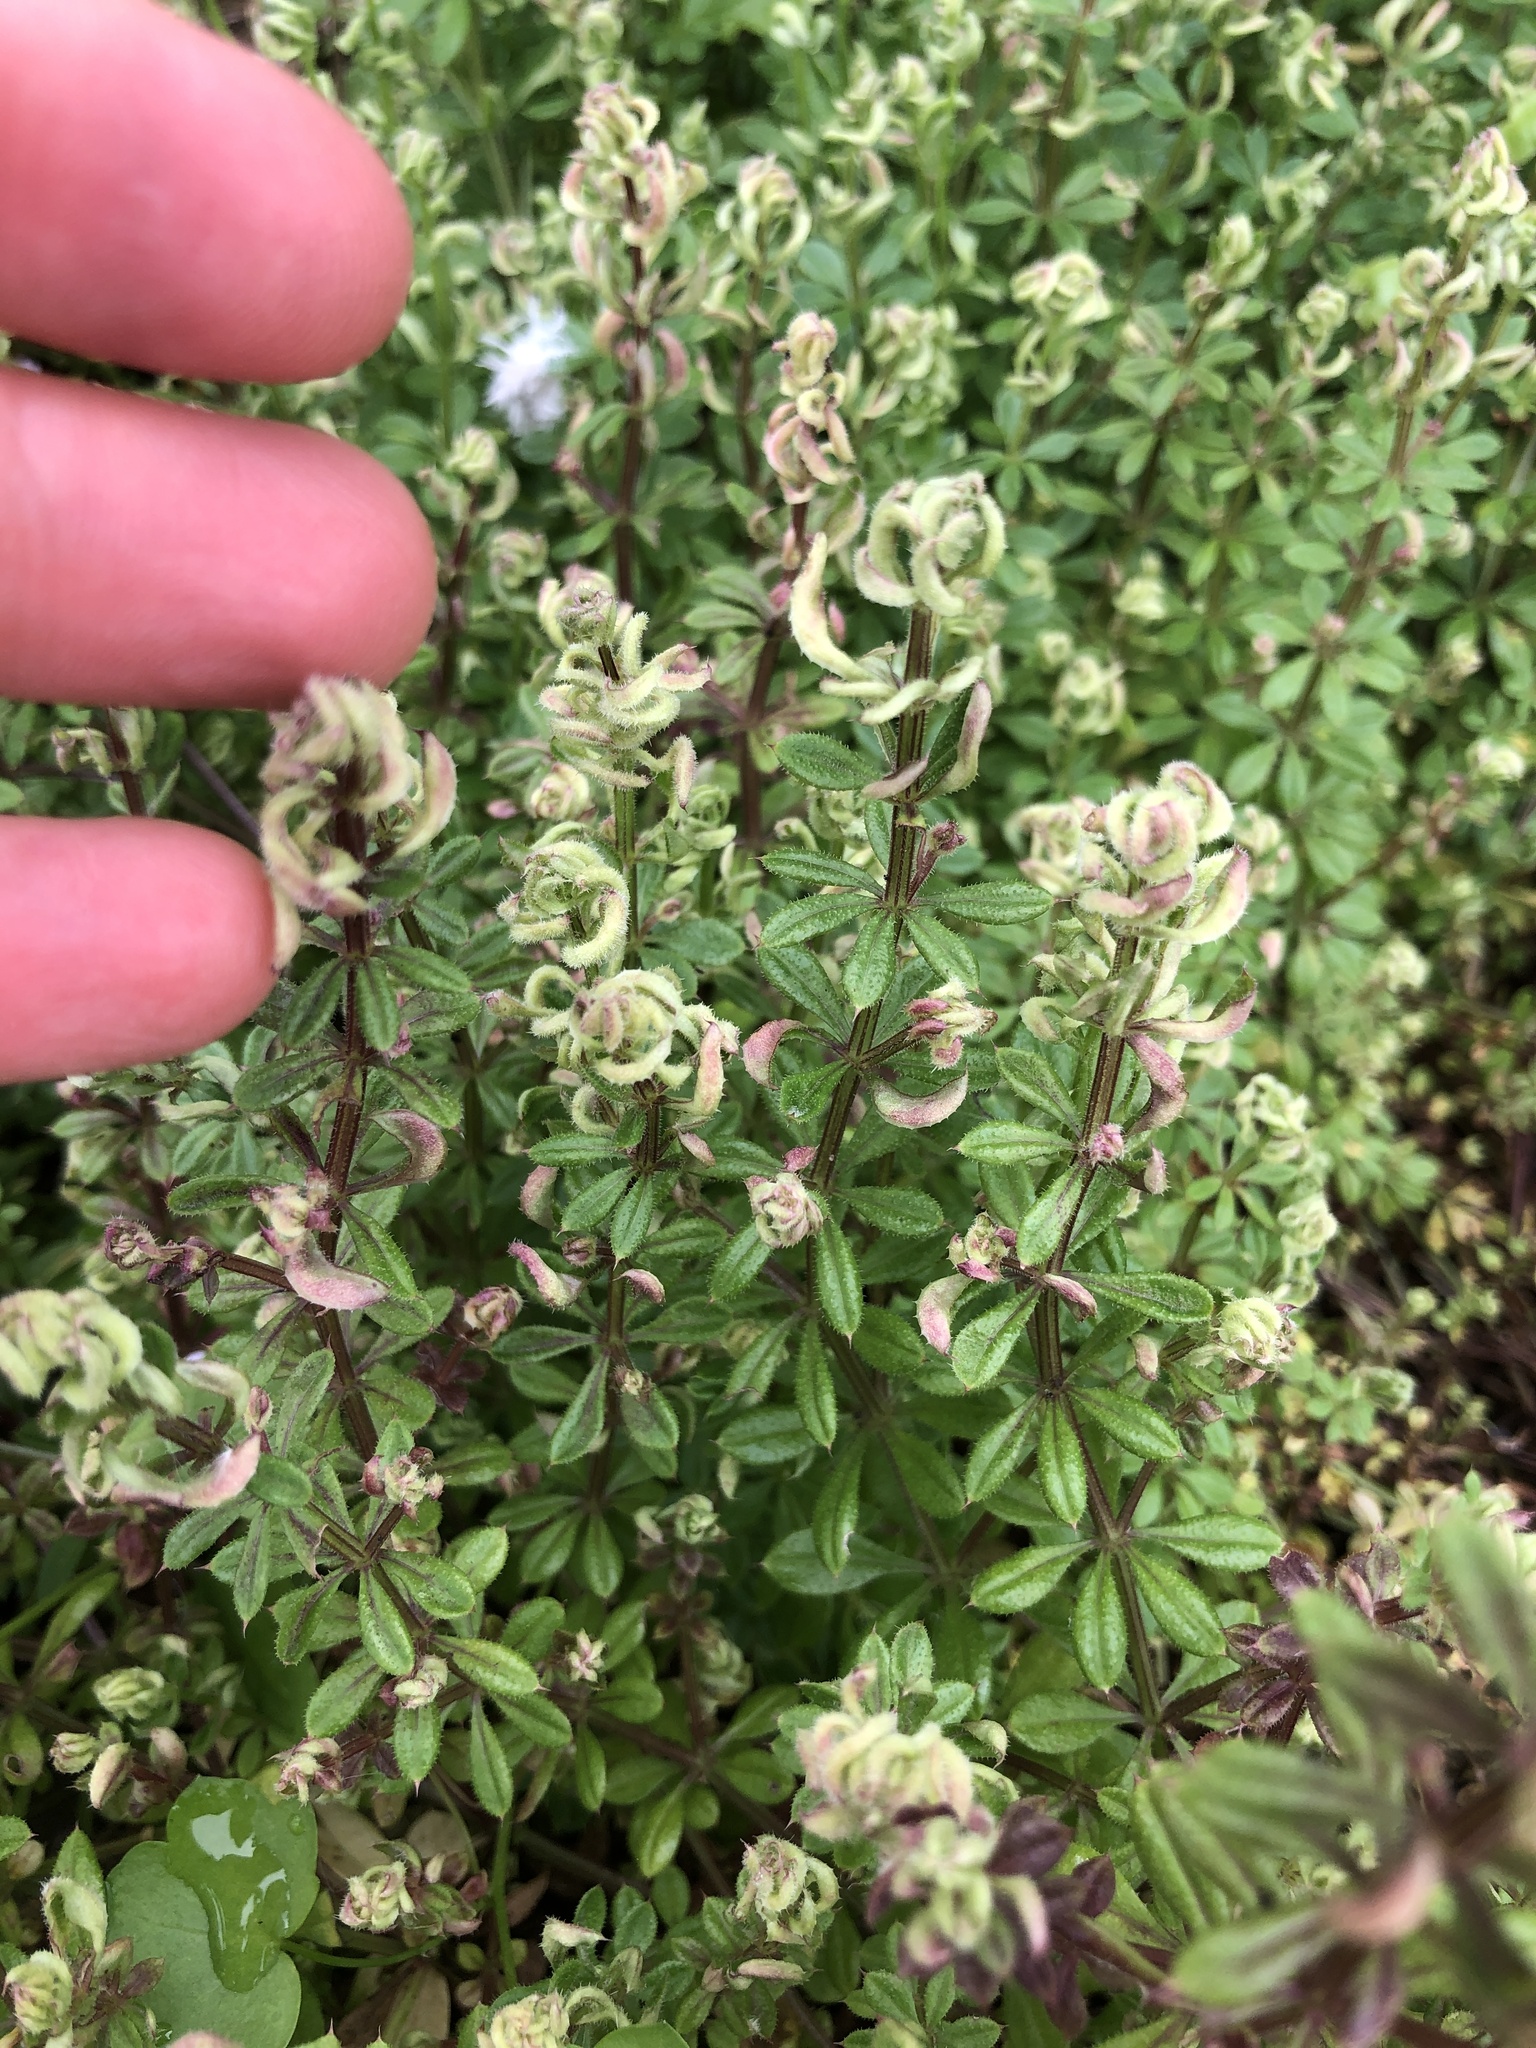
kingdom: Animalia
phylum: Arthropoda
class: Arachnida
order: Trombidiformes
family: Eriophyidae
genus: Cecidophyes
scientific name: Cecidophyes rouhollahi
